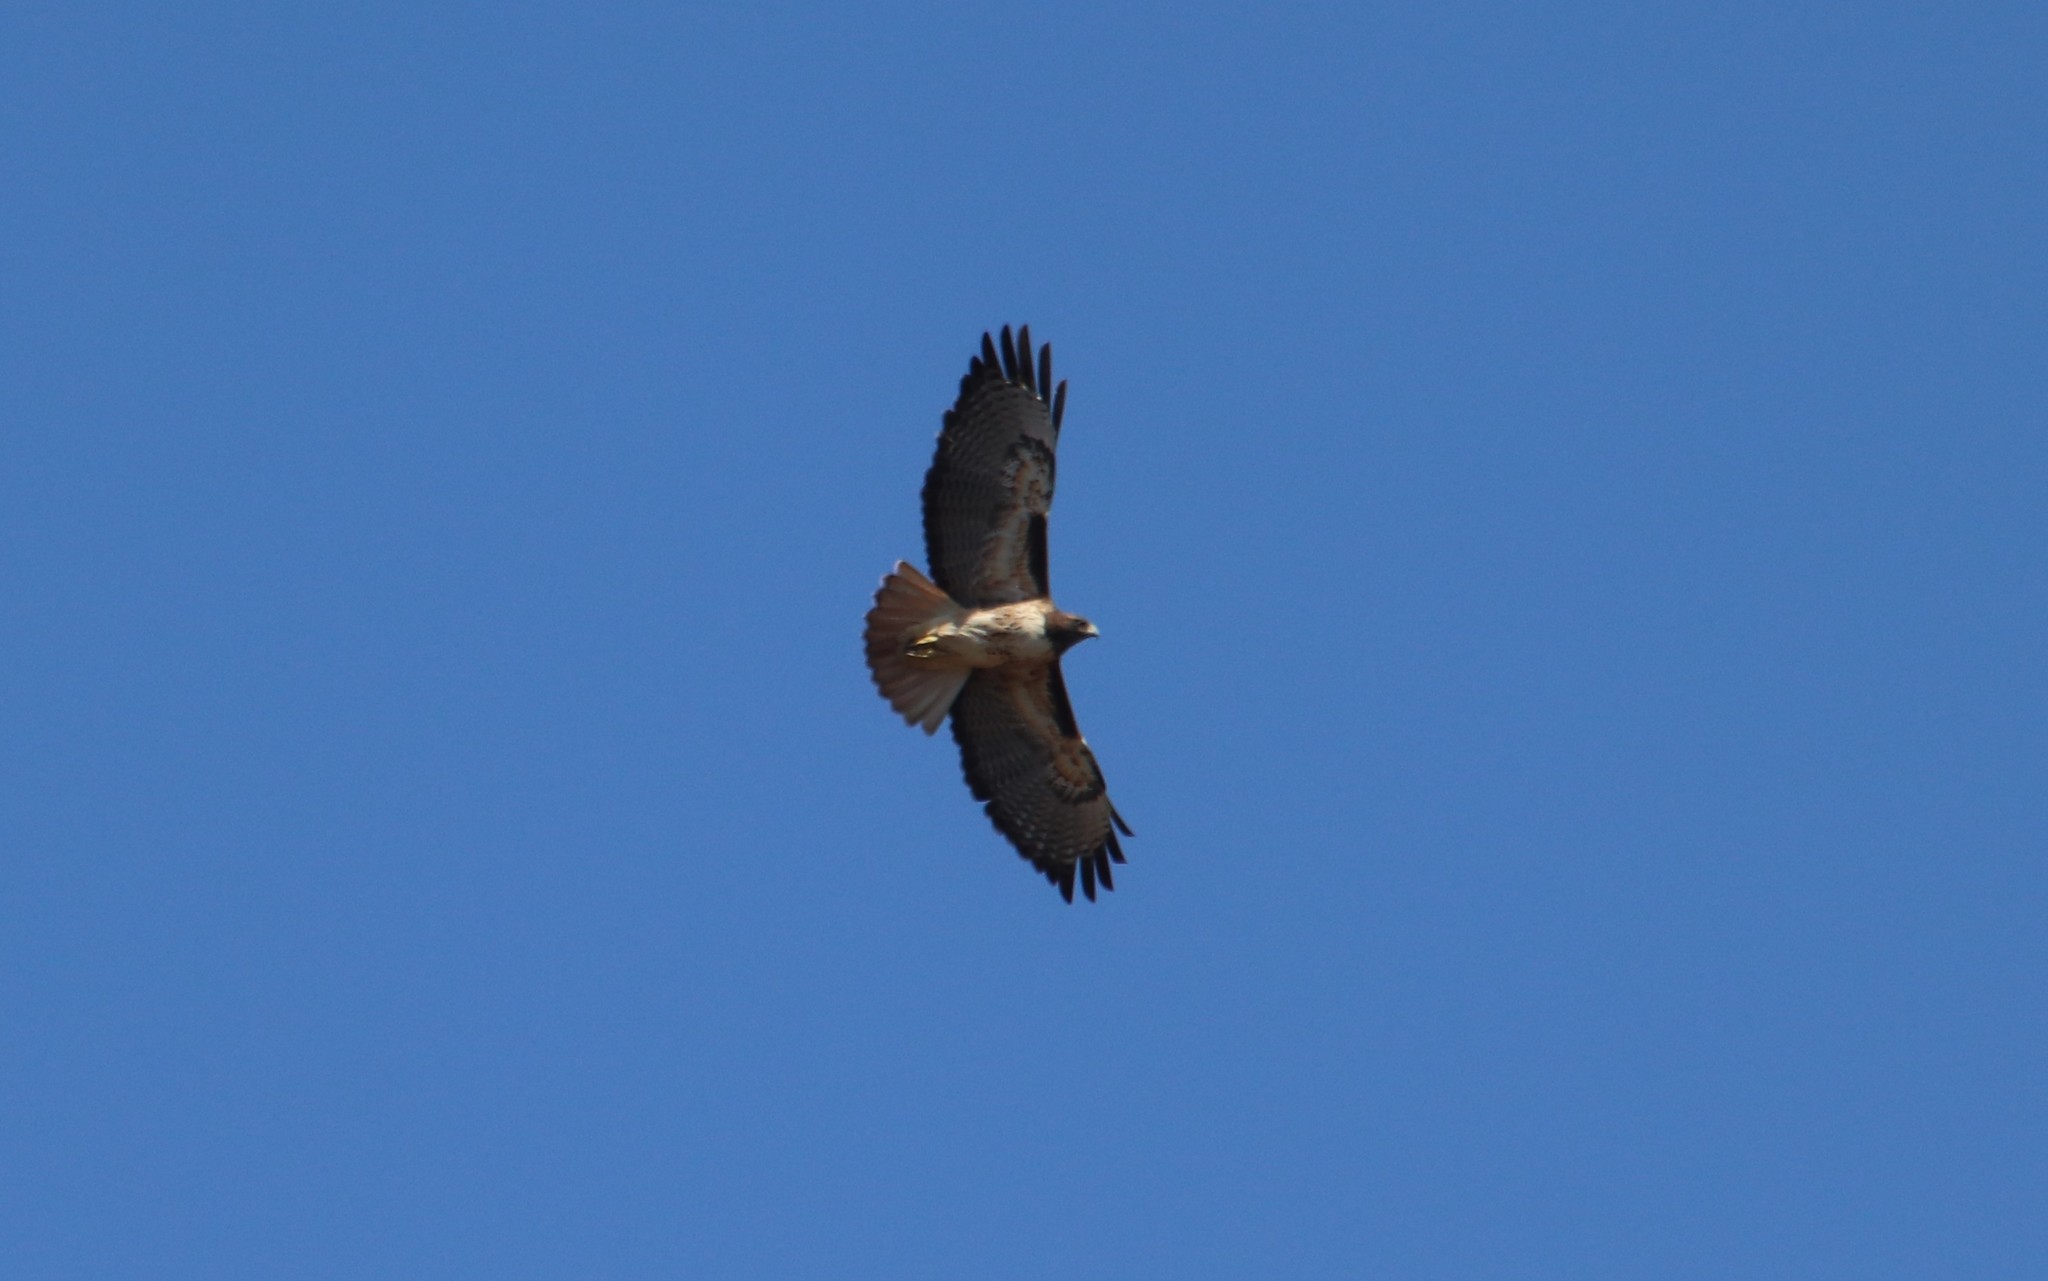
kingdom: Animalia
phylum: Chordata
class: Aves
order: Accipitriformes
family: Accipitridae
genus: Buteo
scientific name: Buteo jamaicensis
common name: Red-tailed hawk
